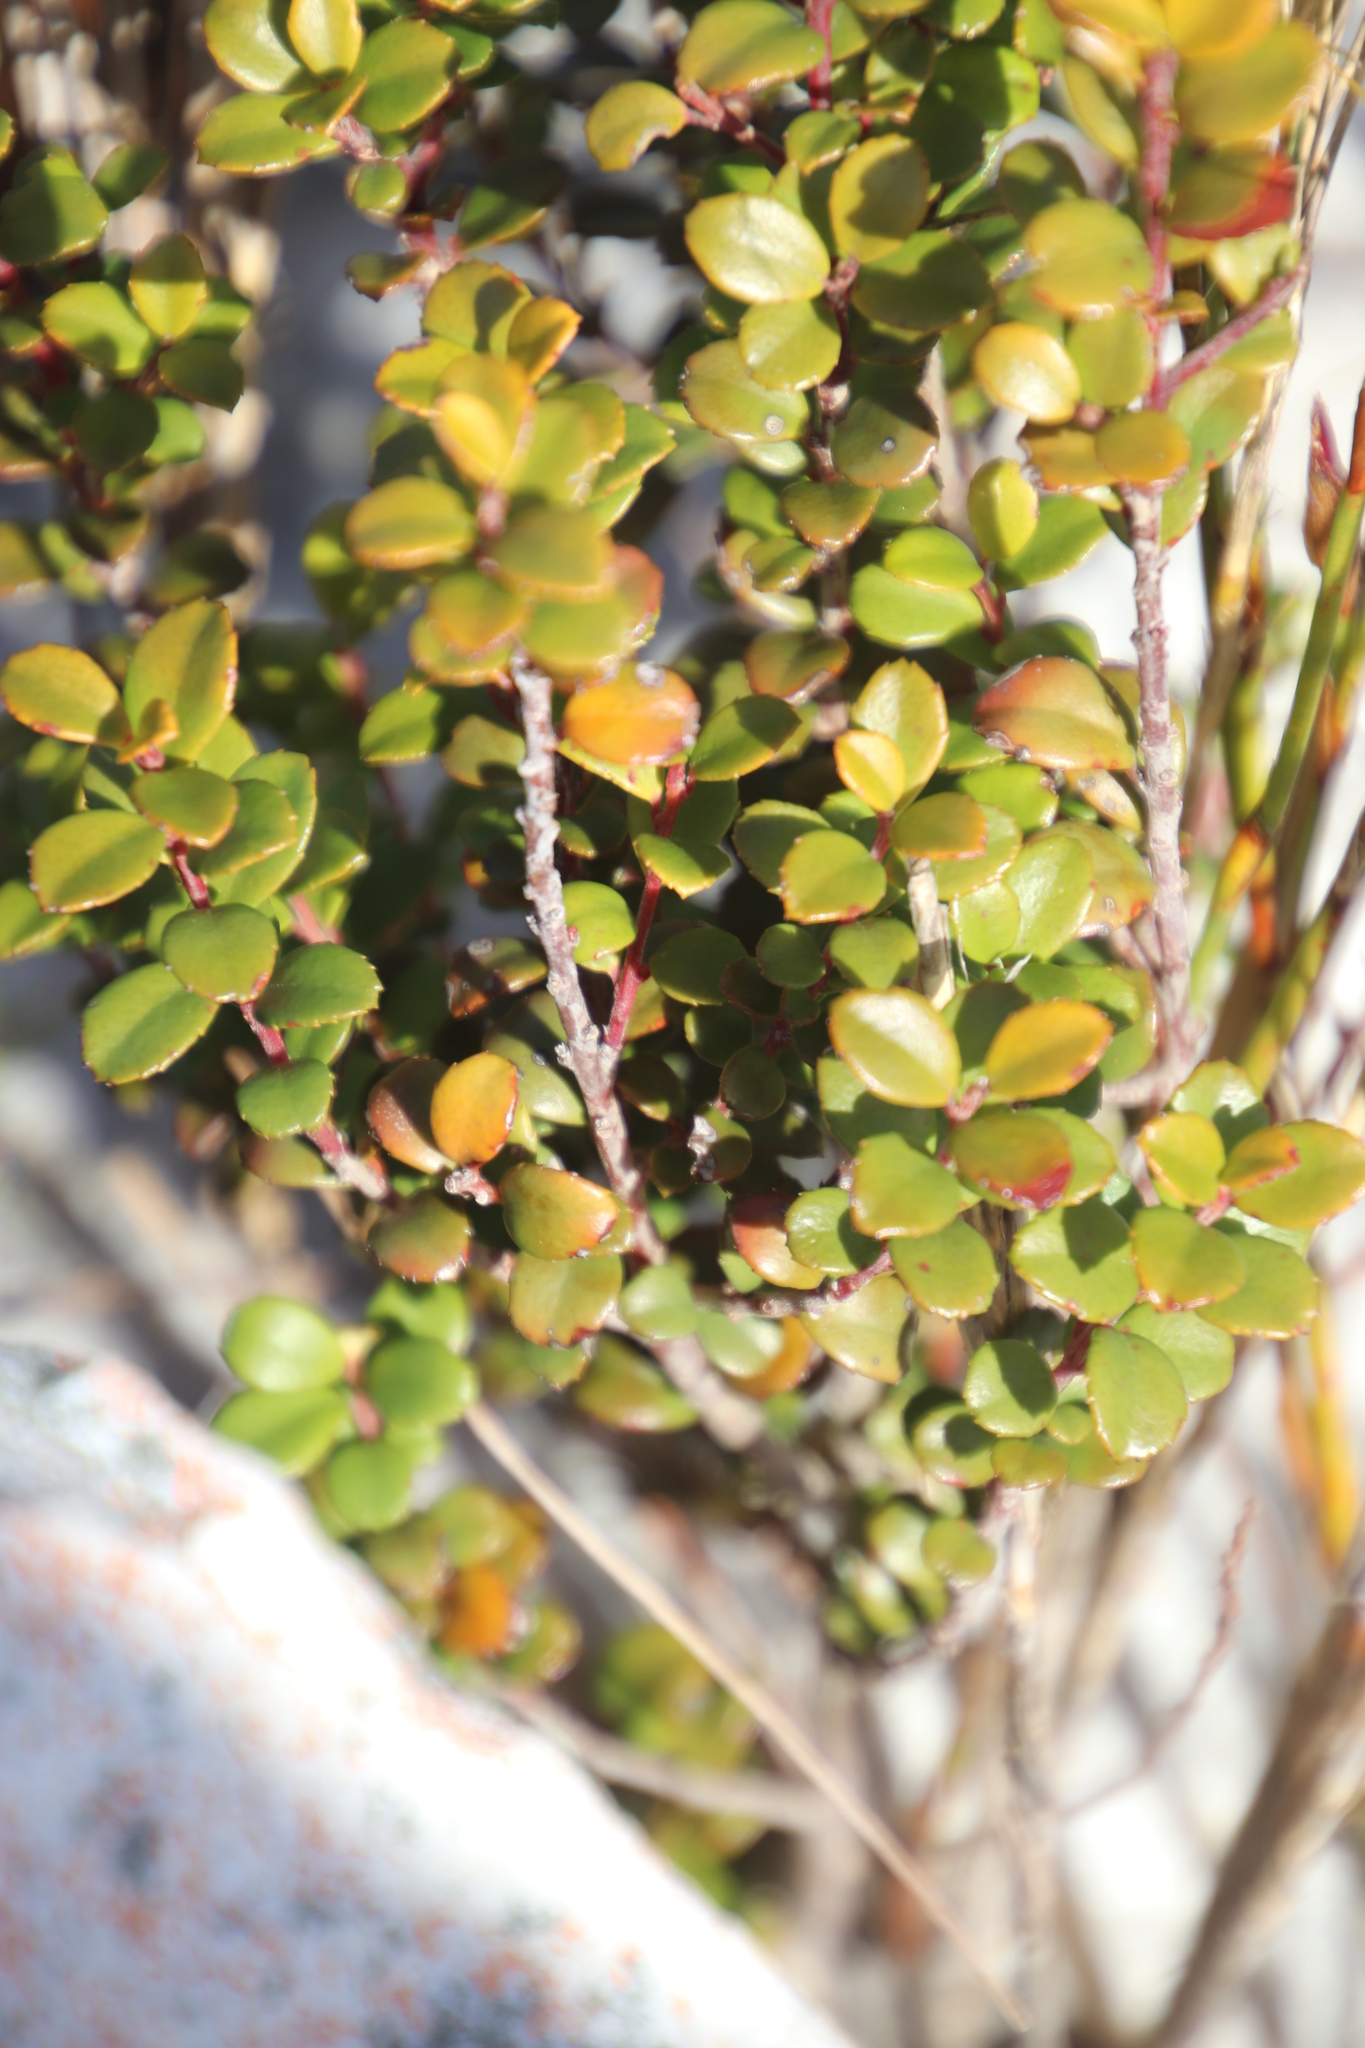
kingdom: Plantae
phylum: Tracheophyta
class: Magnoliopsida
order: Ericales
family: Primulaceae
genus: Myrsine
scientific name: Myrsine africana
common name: African-boxwood
